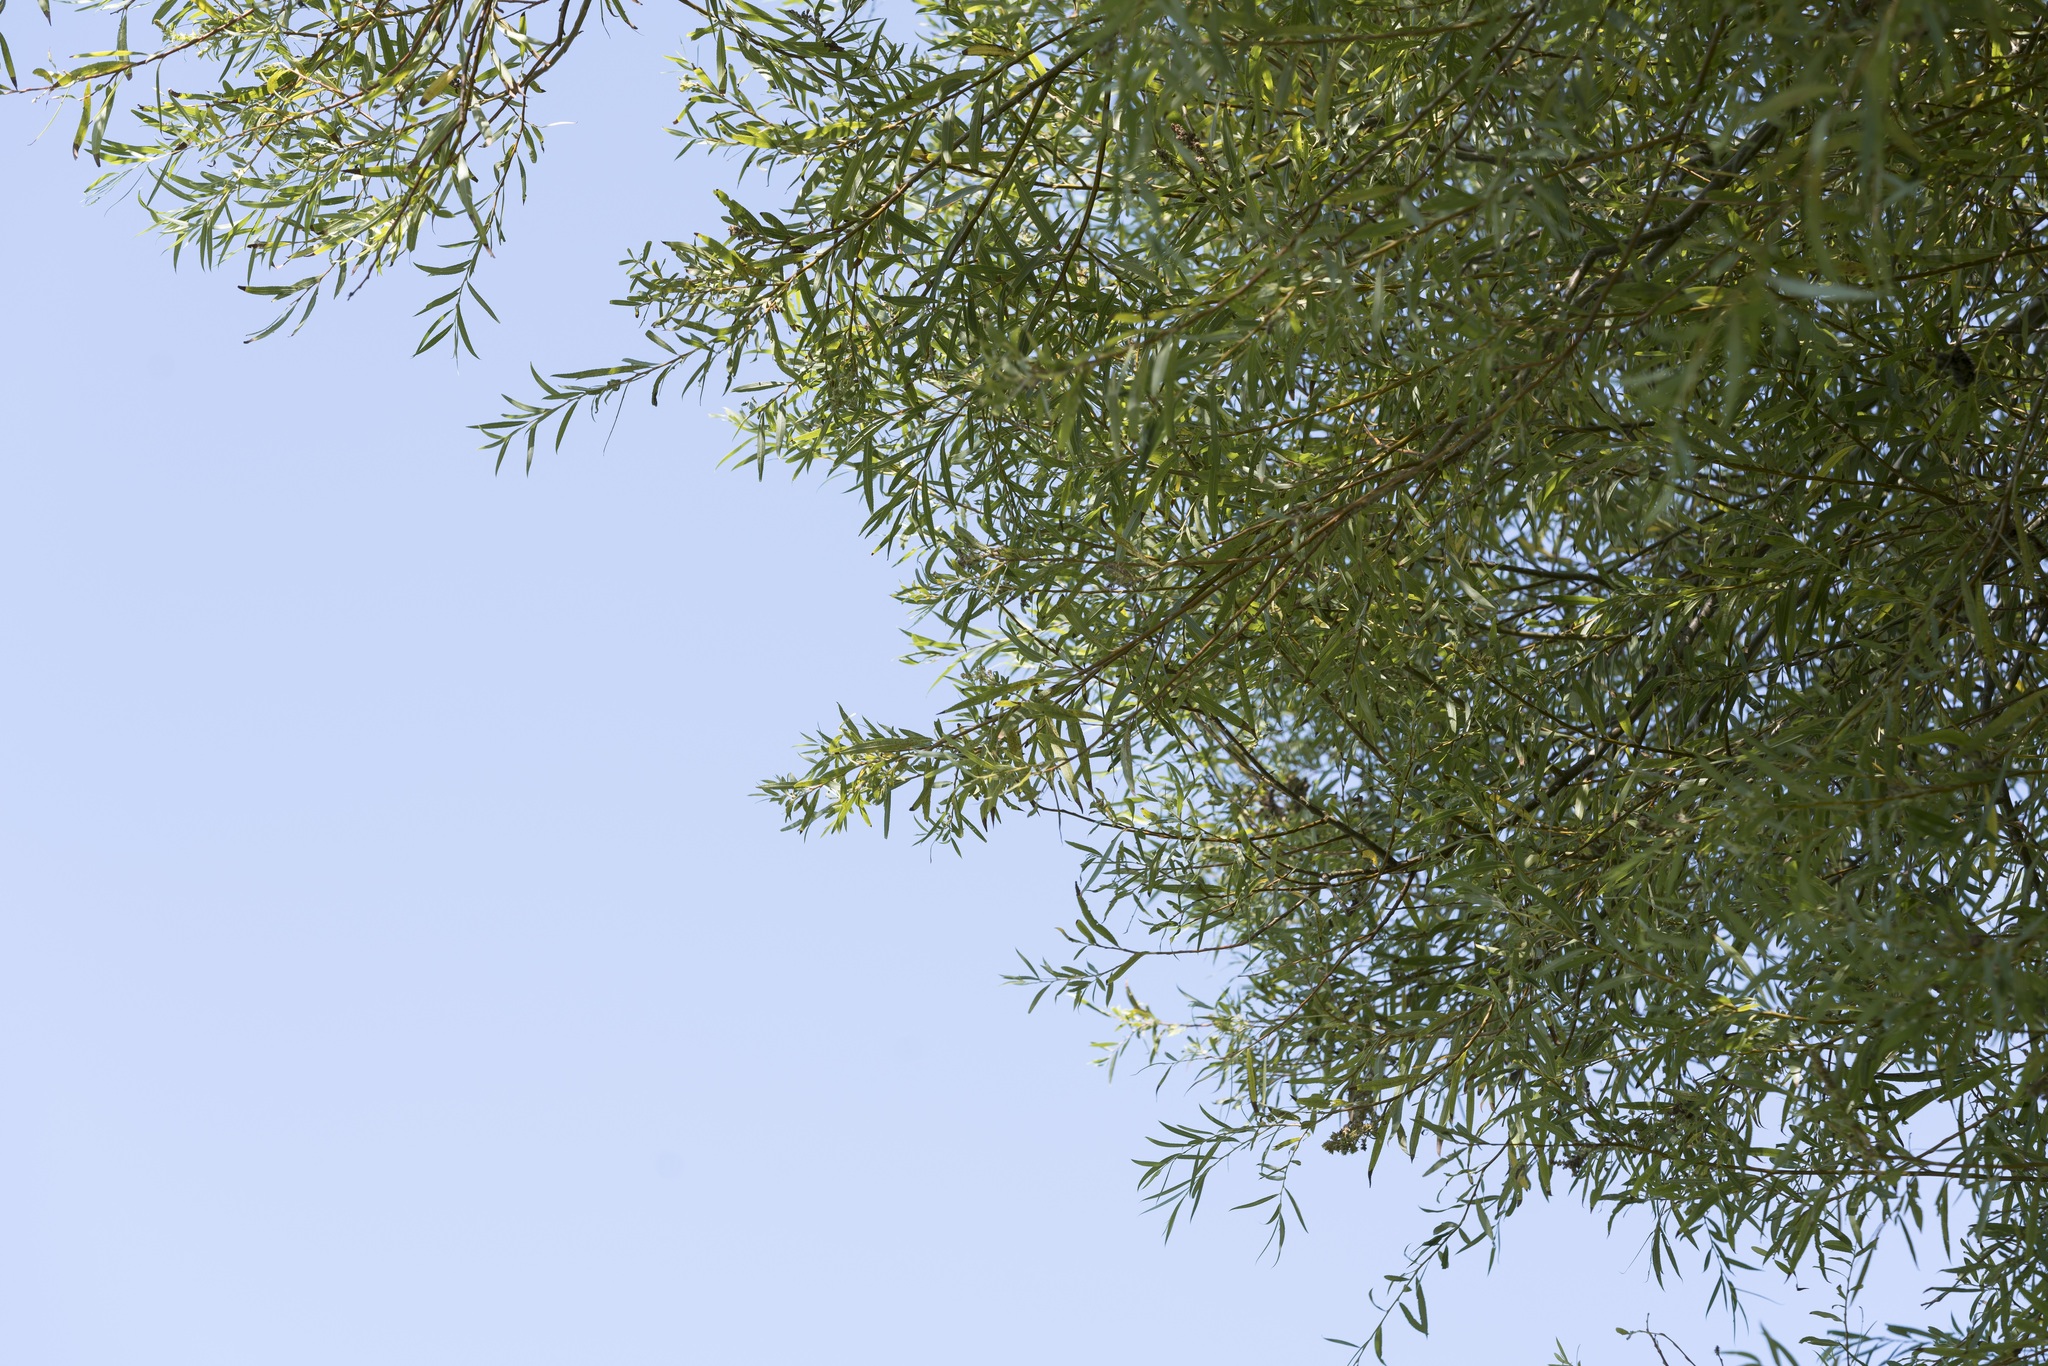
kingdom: Plantae
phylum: Tracheophyta
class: Magnoliopsida
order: Malpighiales
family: Salicaceae
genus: Salix
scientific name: Salix alba
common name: White willow
